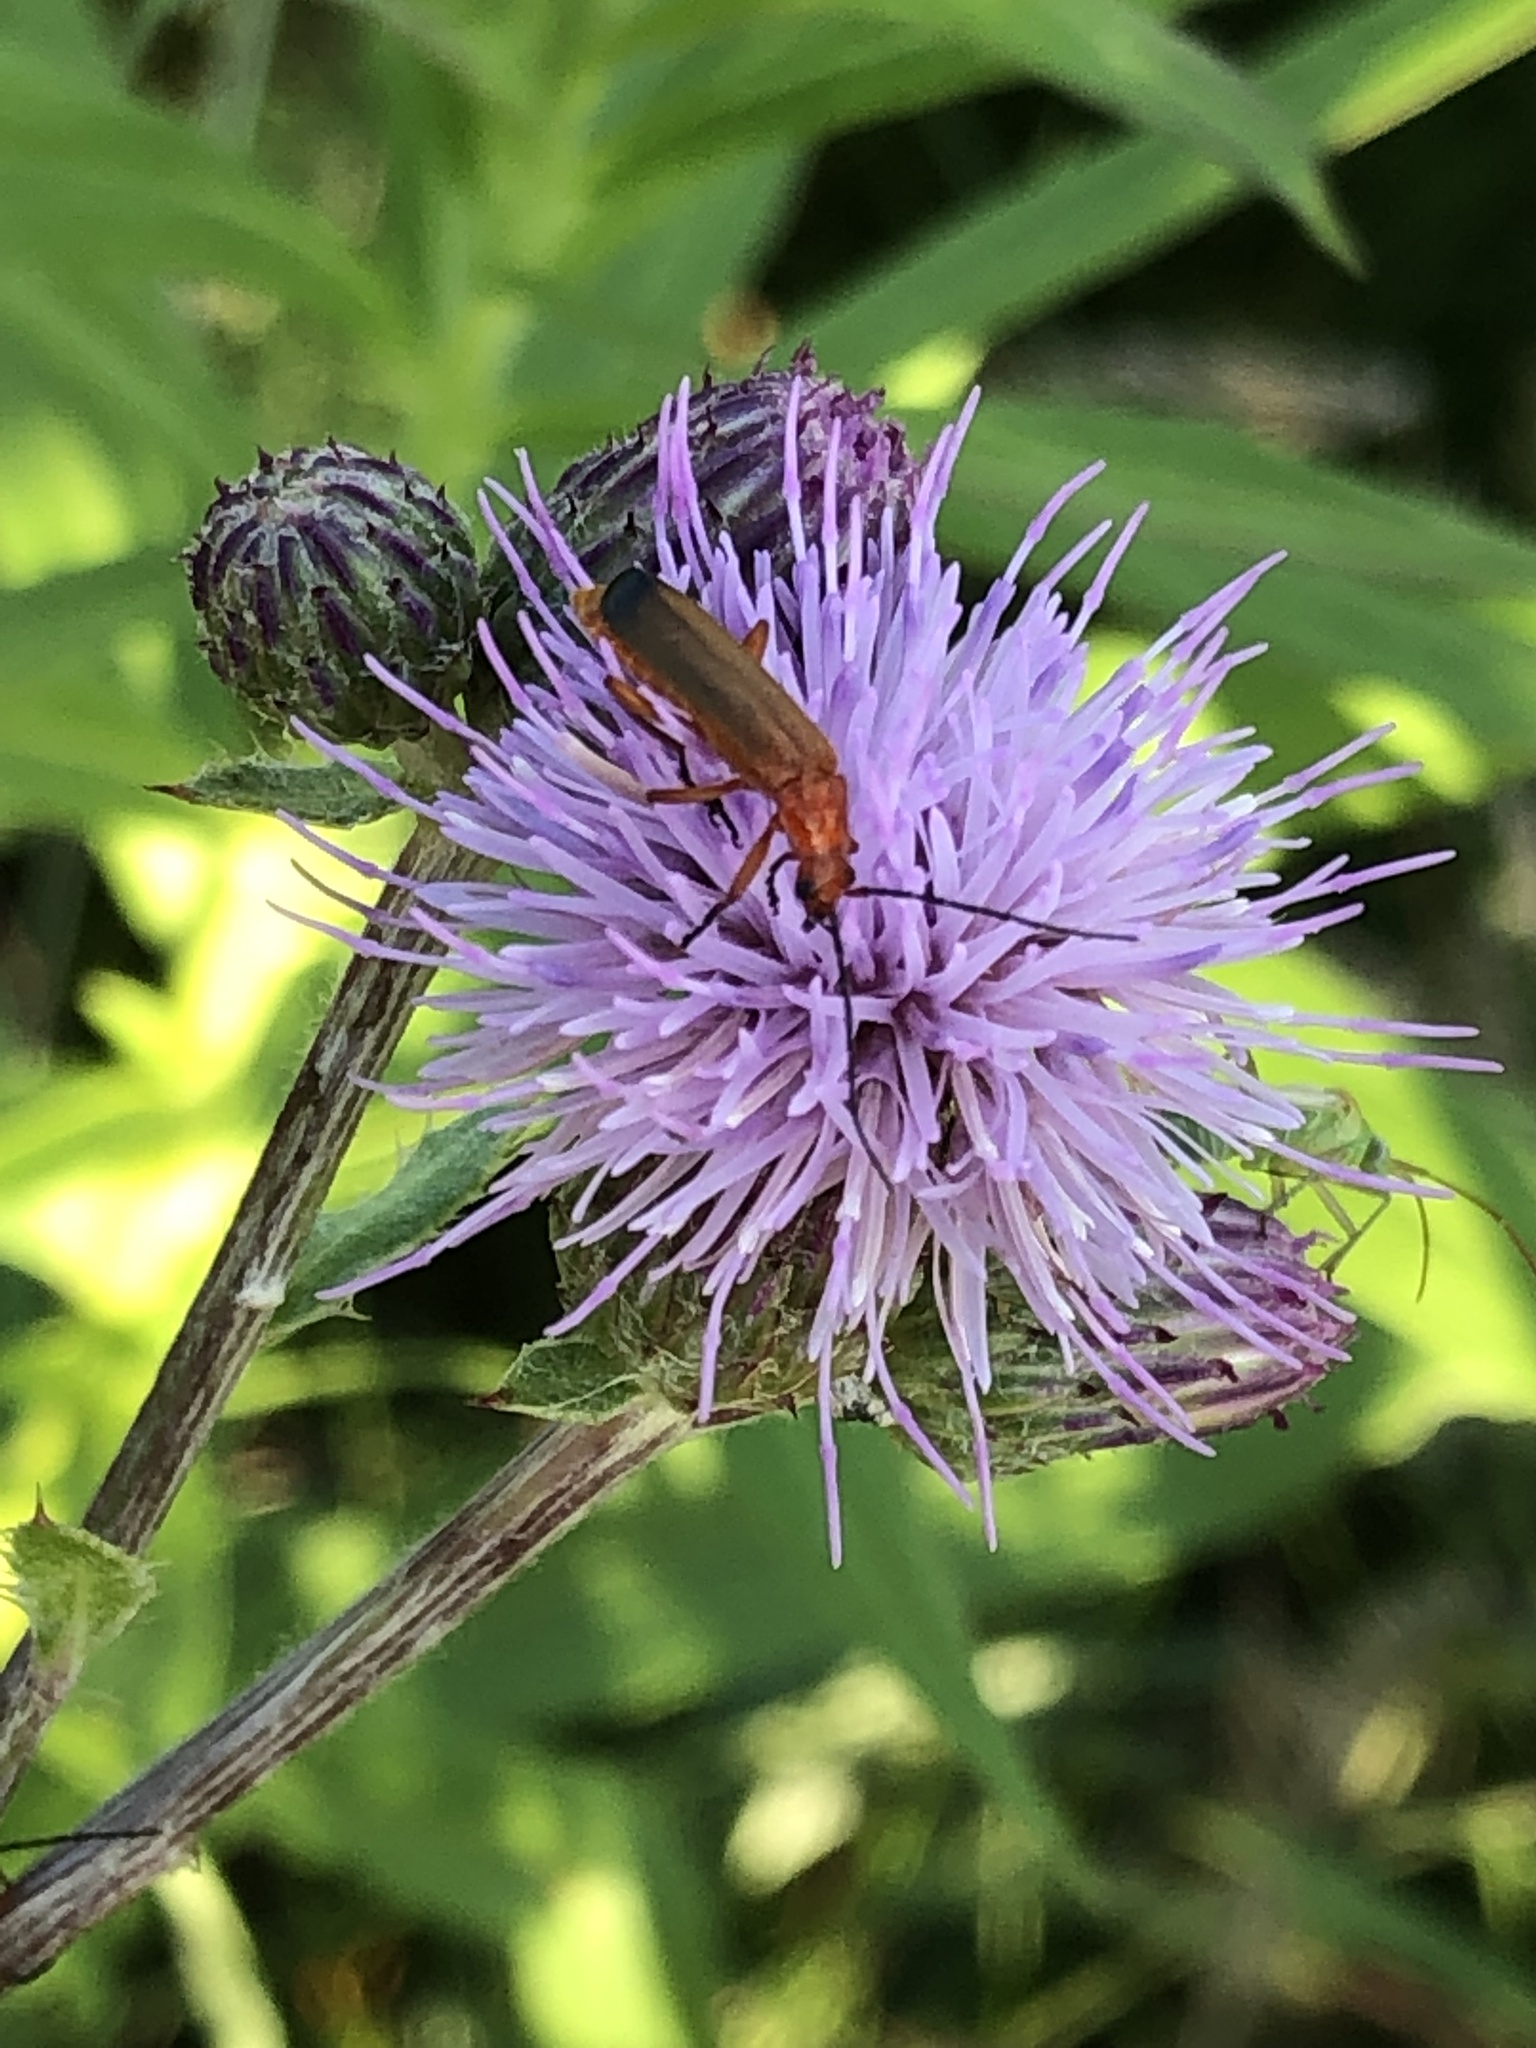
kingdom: Animalia
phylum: Arthropoda
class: Insecta
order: Coleoptera
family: Cantharidae
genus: Rhagonycha
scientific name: Rhagonycha fulva
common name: Common red soldier beetle
